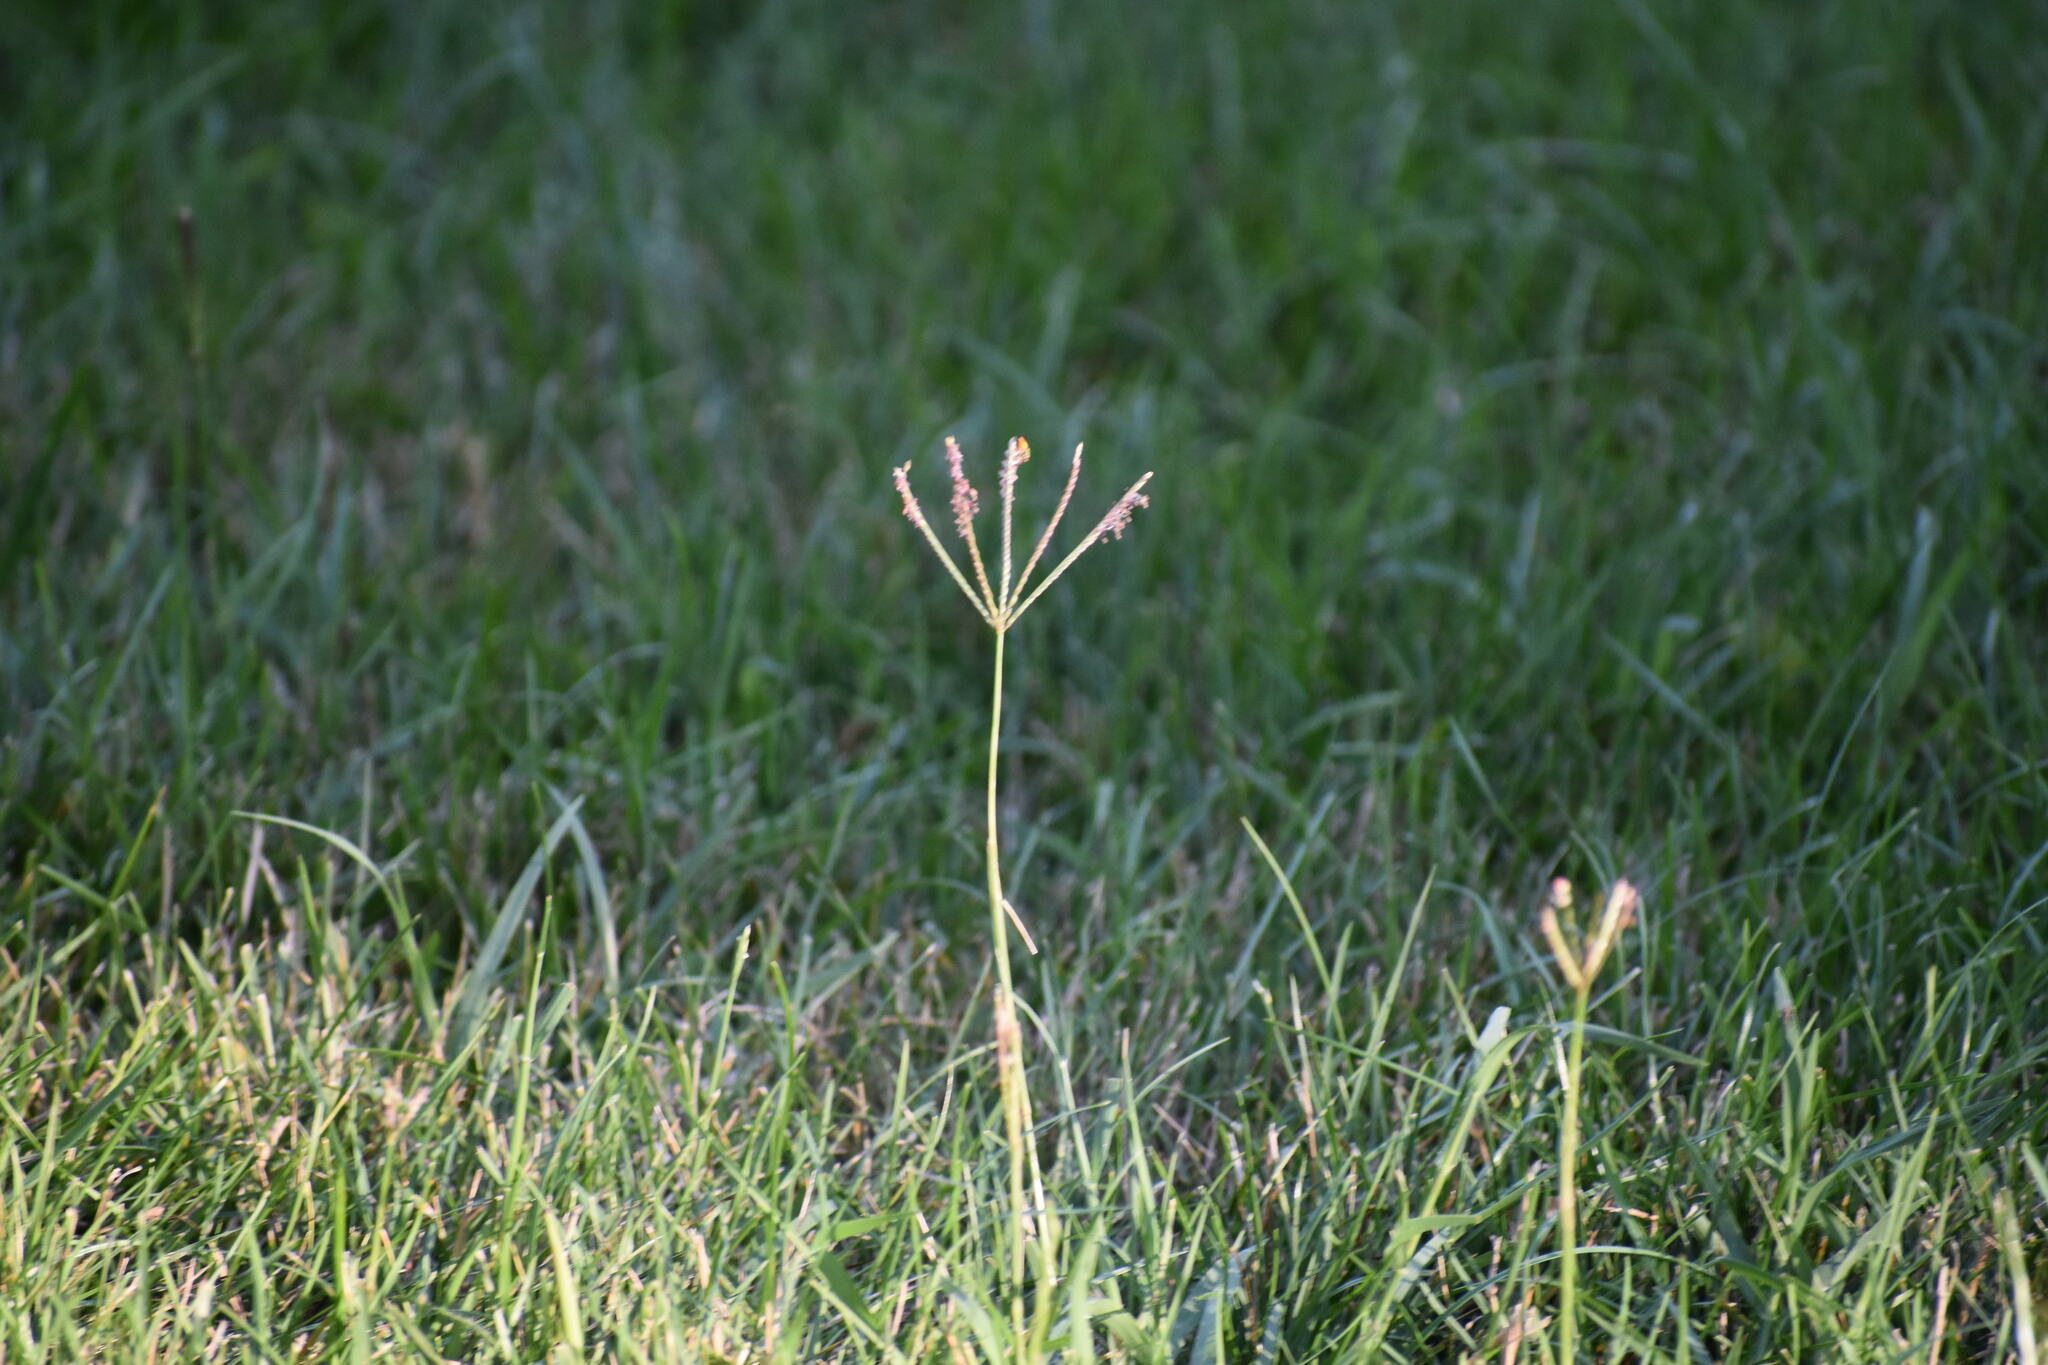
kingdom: Plantae
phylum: Tracheophyta
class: Liliopsida
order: Poales
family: Poaceae
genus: Cynodon
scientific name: Cynodon dactylon
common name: Bermuda grass
